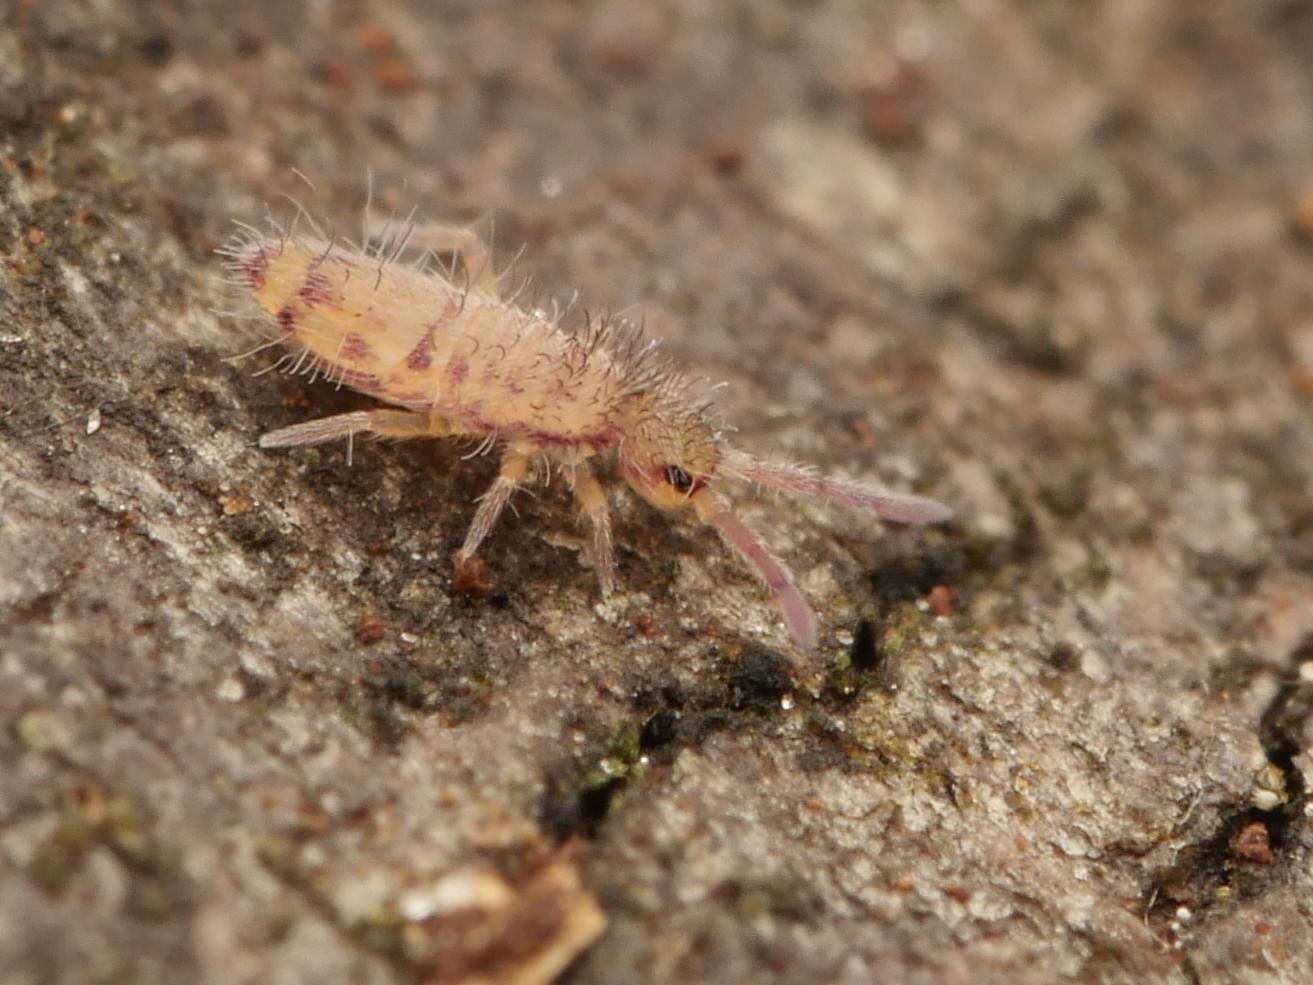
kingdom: Animalia
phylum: Arthropoda
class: Collembola
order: Entomobryomorpha
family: Entomobryidae
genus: Entomobrya
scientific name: Entomobrya multifasciata
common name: Springtail
